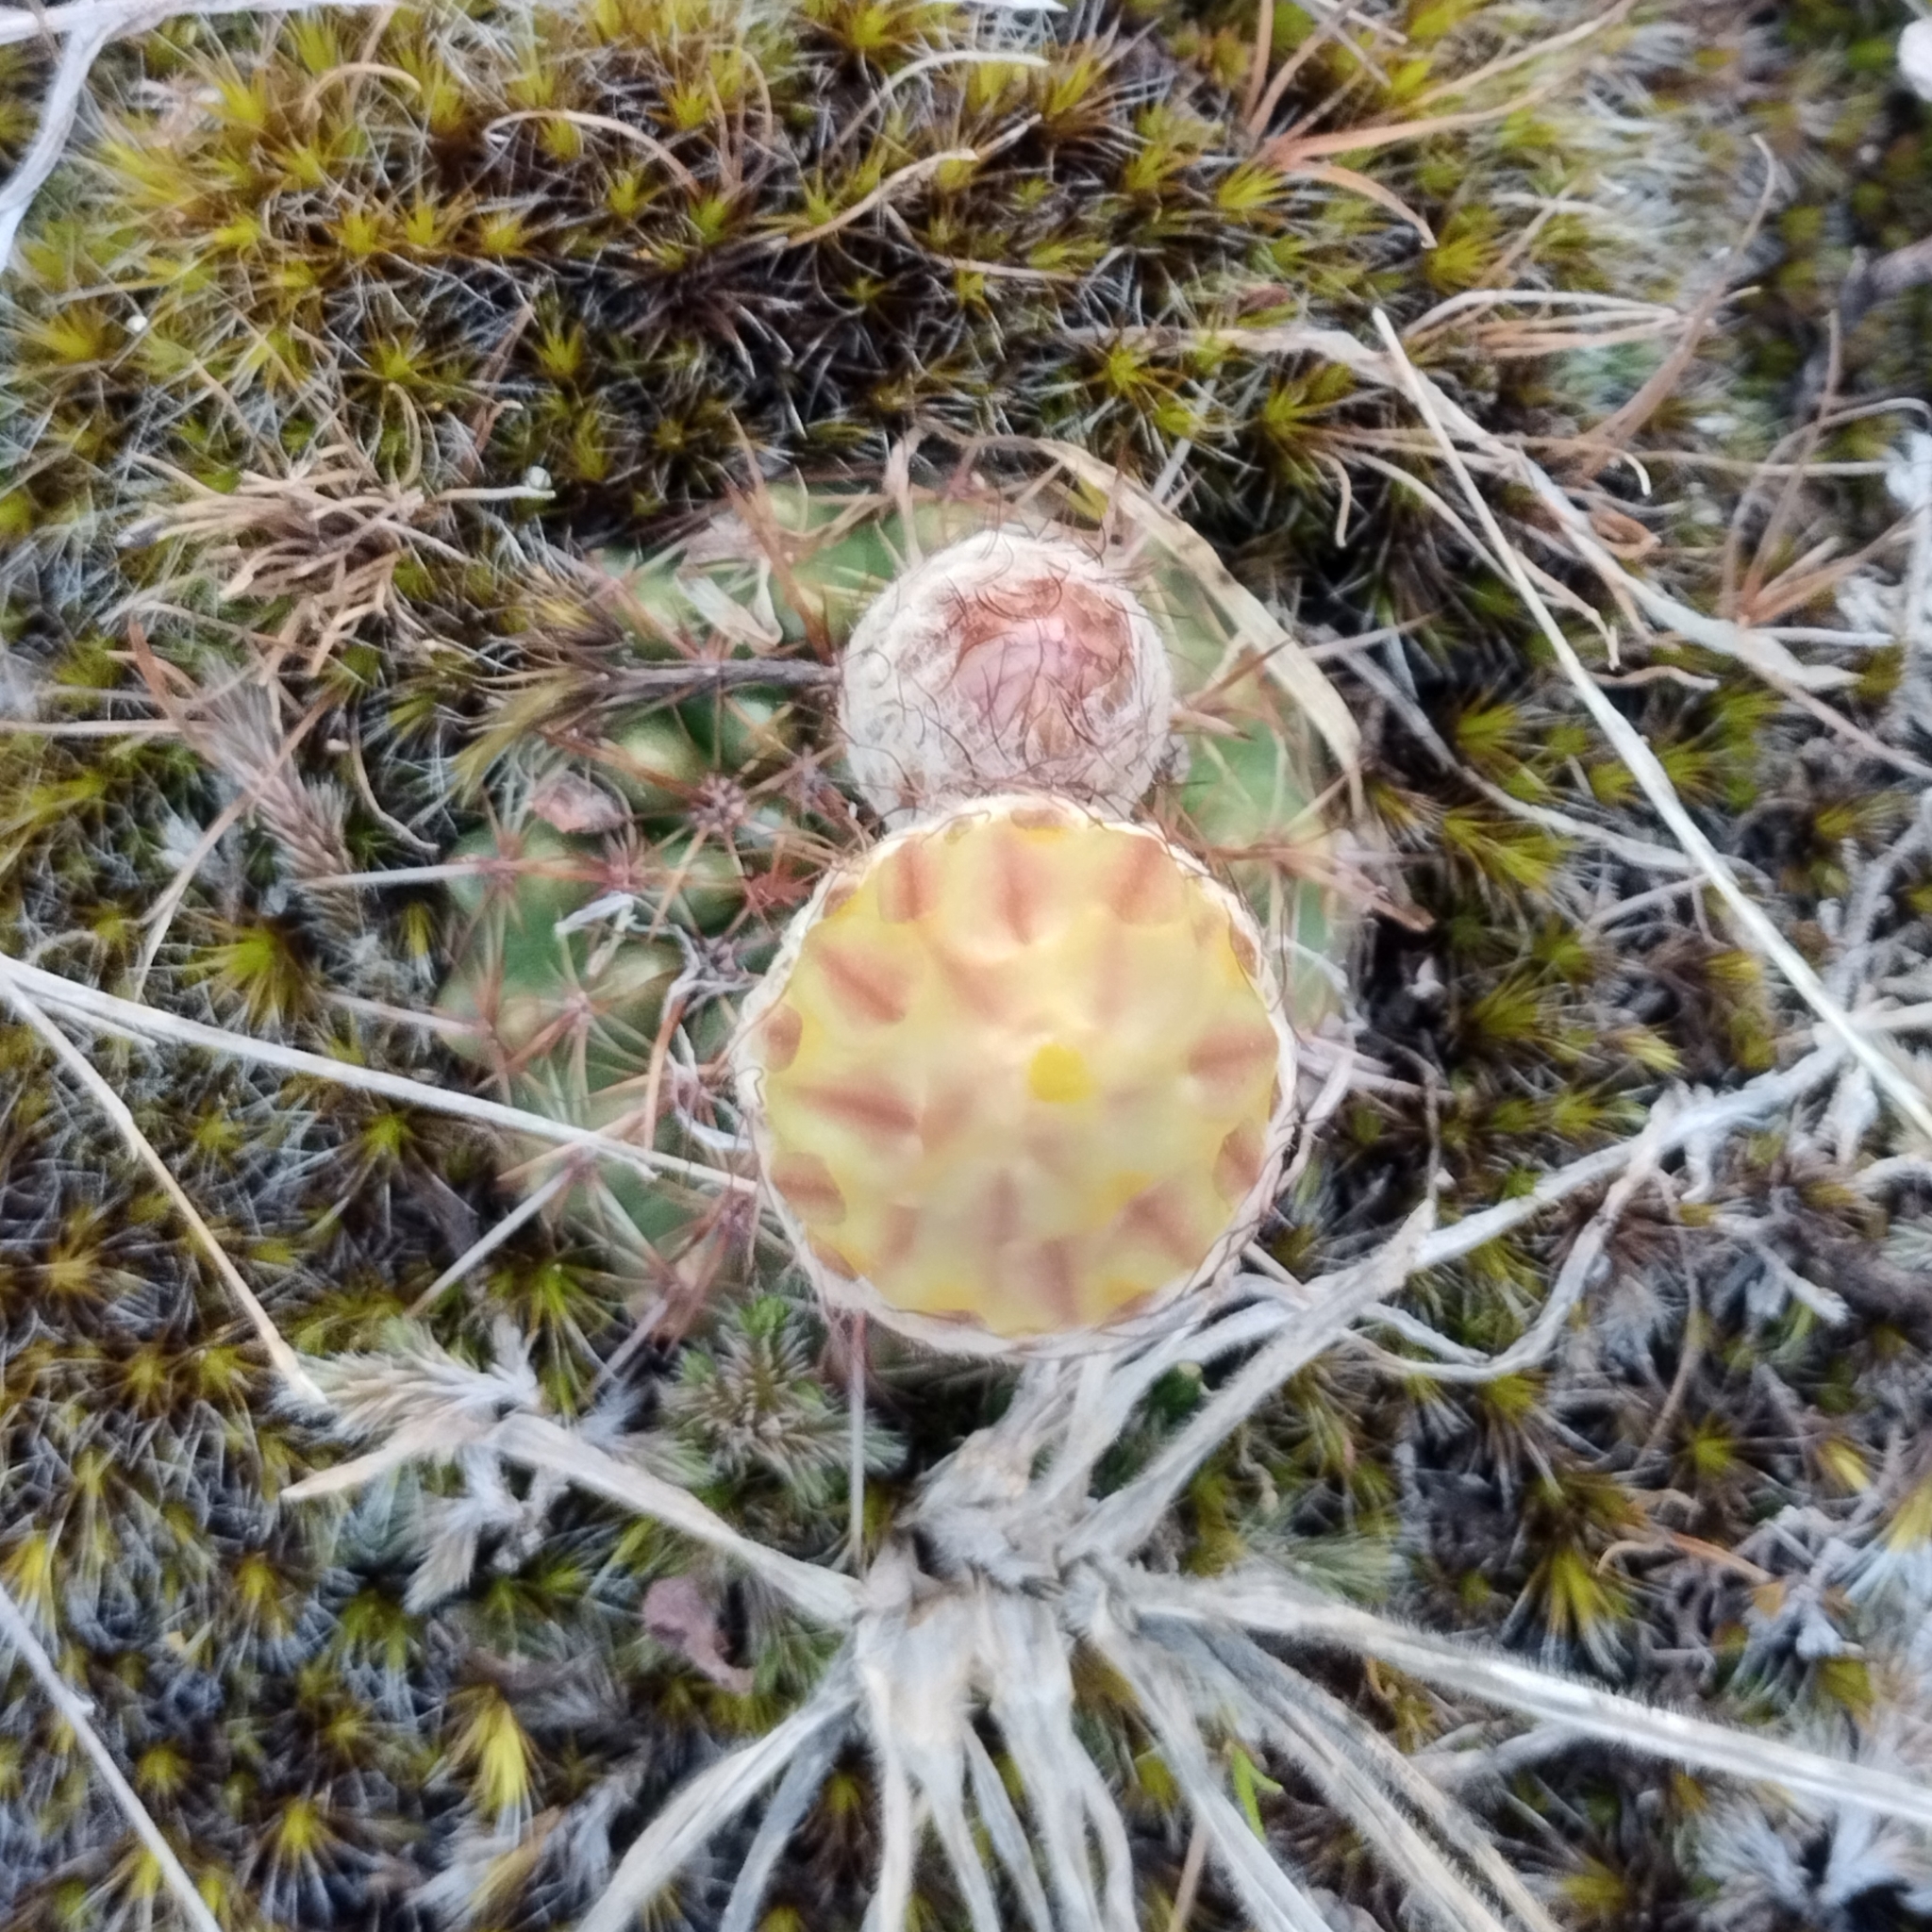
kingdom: Plantae
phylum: Tracheophyta
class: Magnoliopsida
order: Caryophyllales
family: Cactaceae
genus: Parodia
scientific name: Parodia mammulosa
